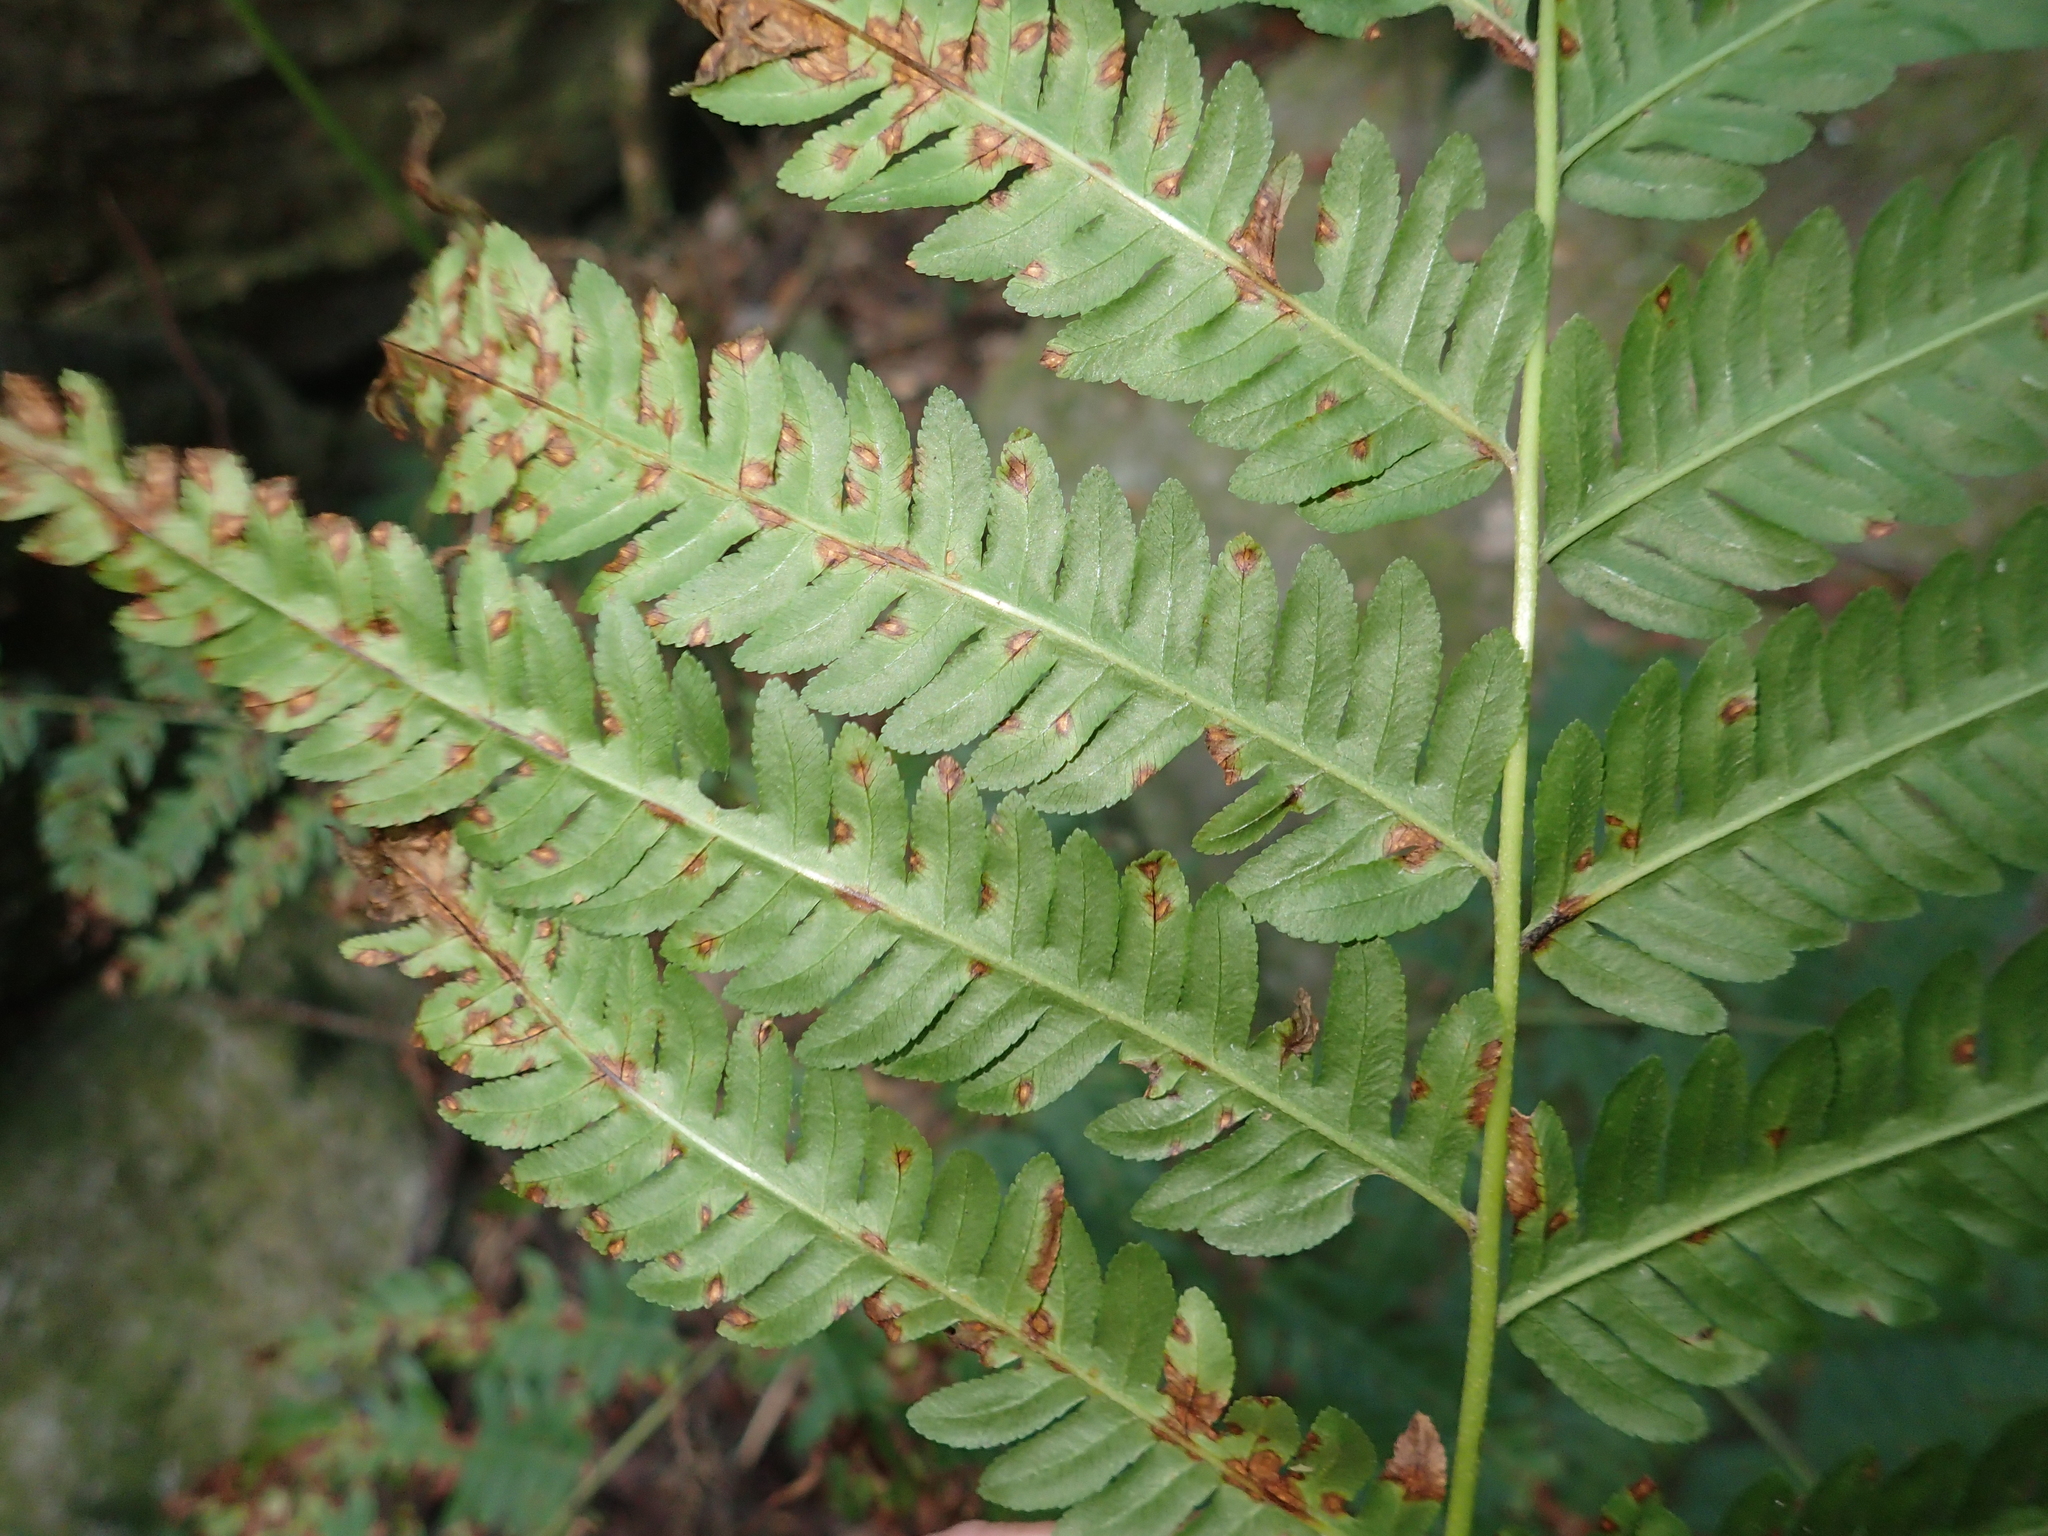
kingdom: Plantae
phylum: Tracheophyta
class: Polypodiopsida
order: Polypodiales
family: Pteridaceae
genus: Pteris
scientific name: Pteris wallichiana
